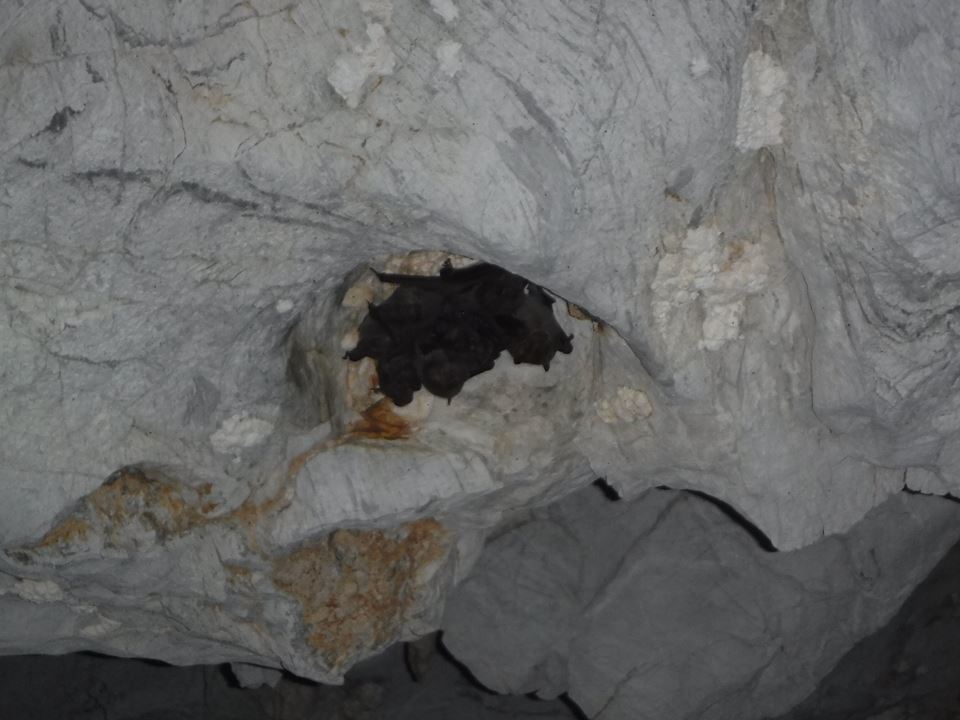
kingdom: Animalia
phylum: Chordata
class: Mammalia
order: Chiroptera
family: Phyllostomidae
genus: Artibeus
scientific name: Artibeus jamaicensis
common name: Jamaican fruit-eating bat
